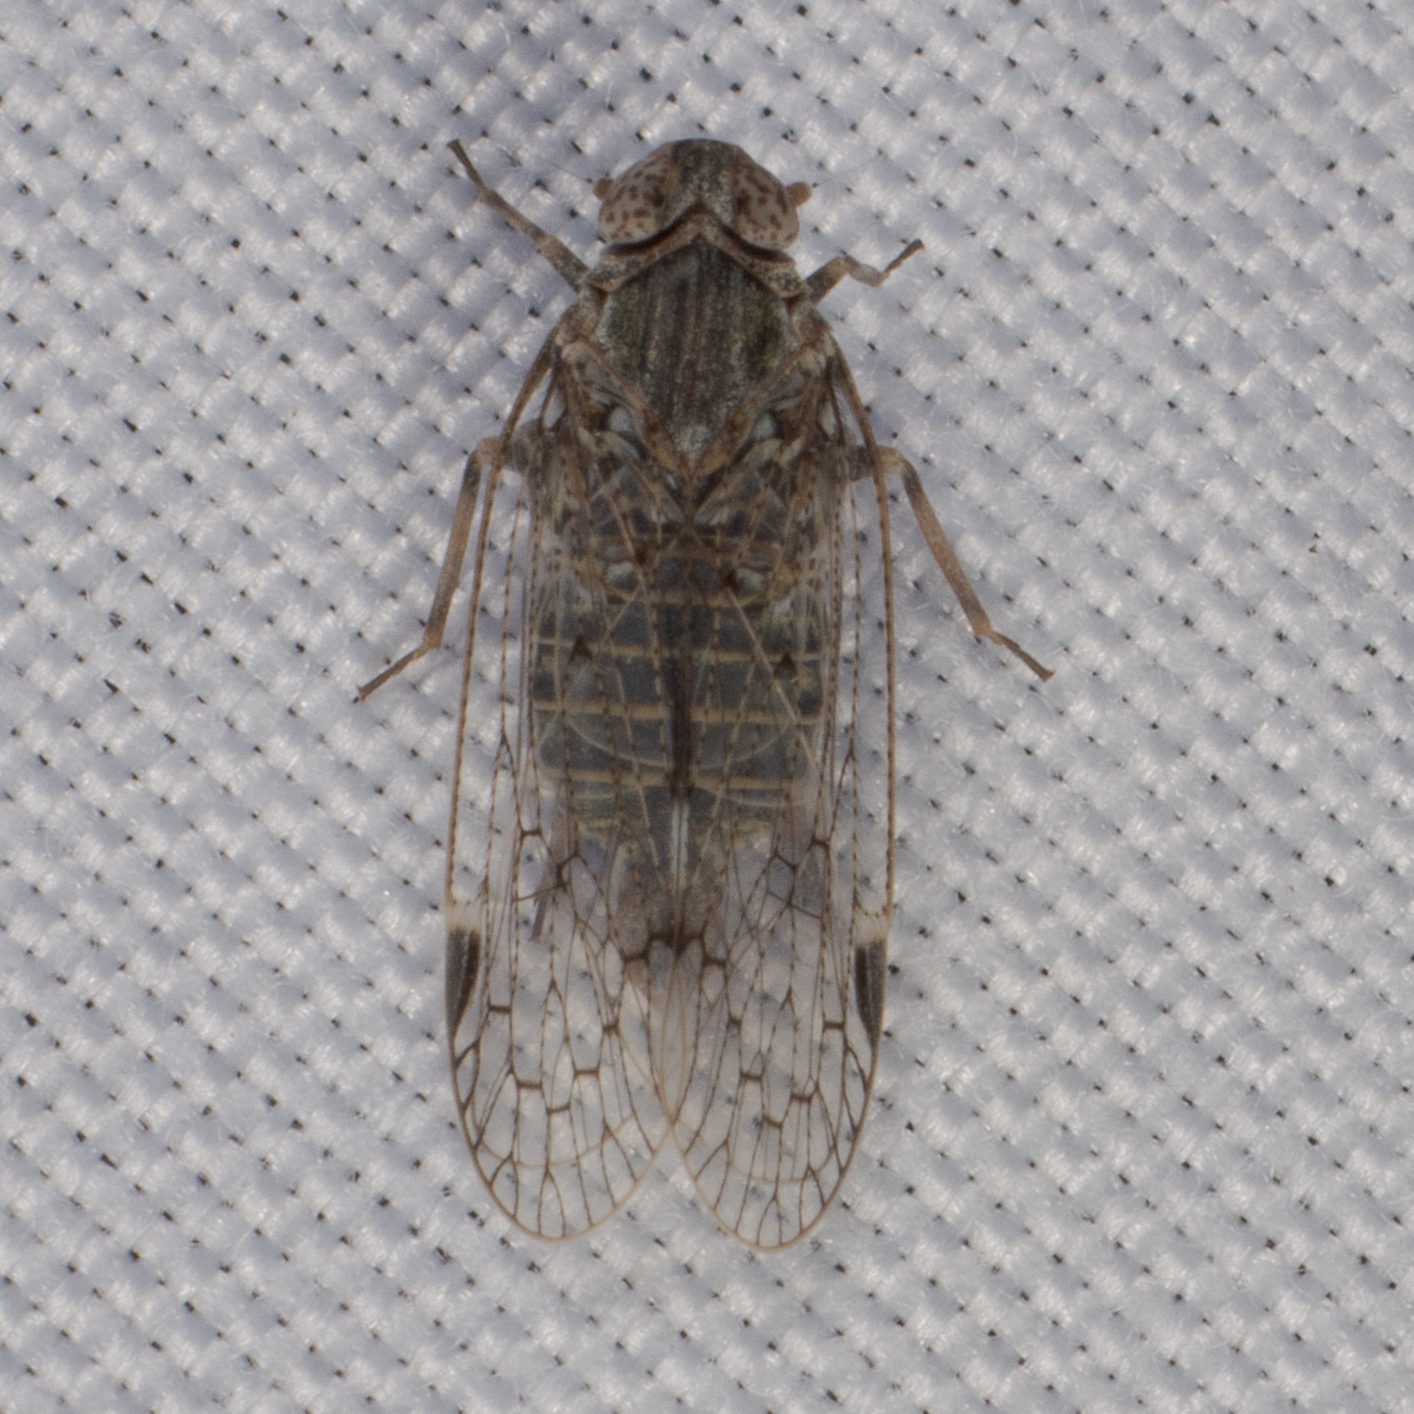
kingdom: Animalia
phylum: Arthropoda
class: Insecta
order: Hemiptera
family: Cixiidae
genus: Melanoliarus
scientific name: Melanoliarus aridus
